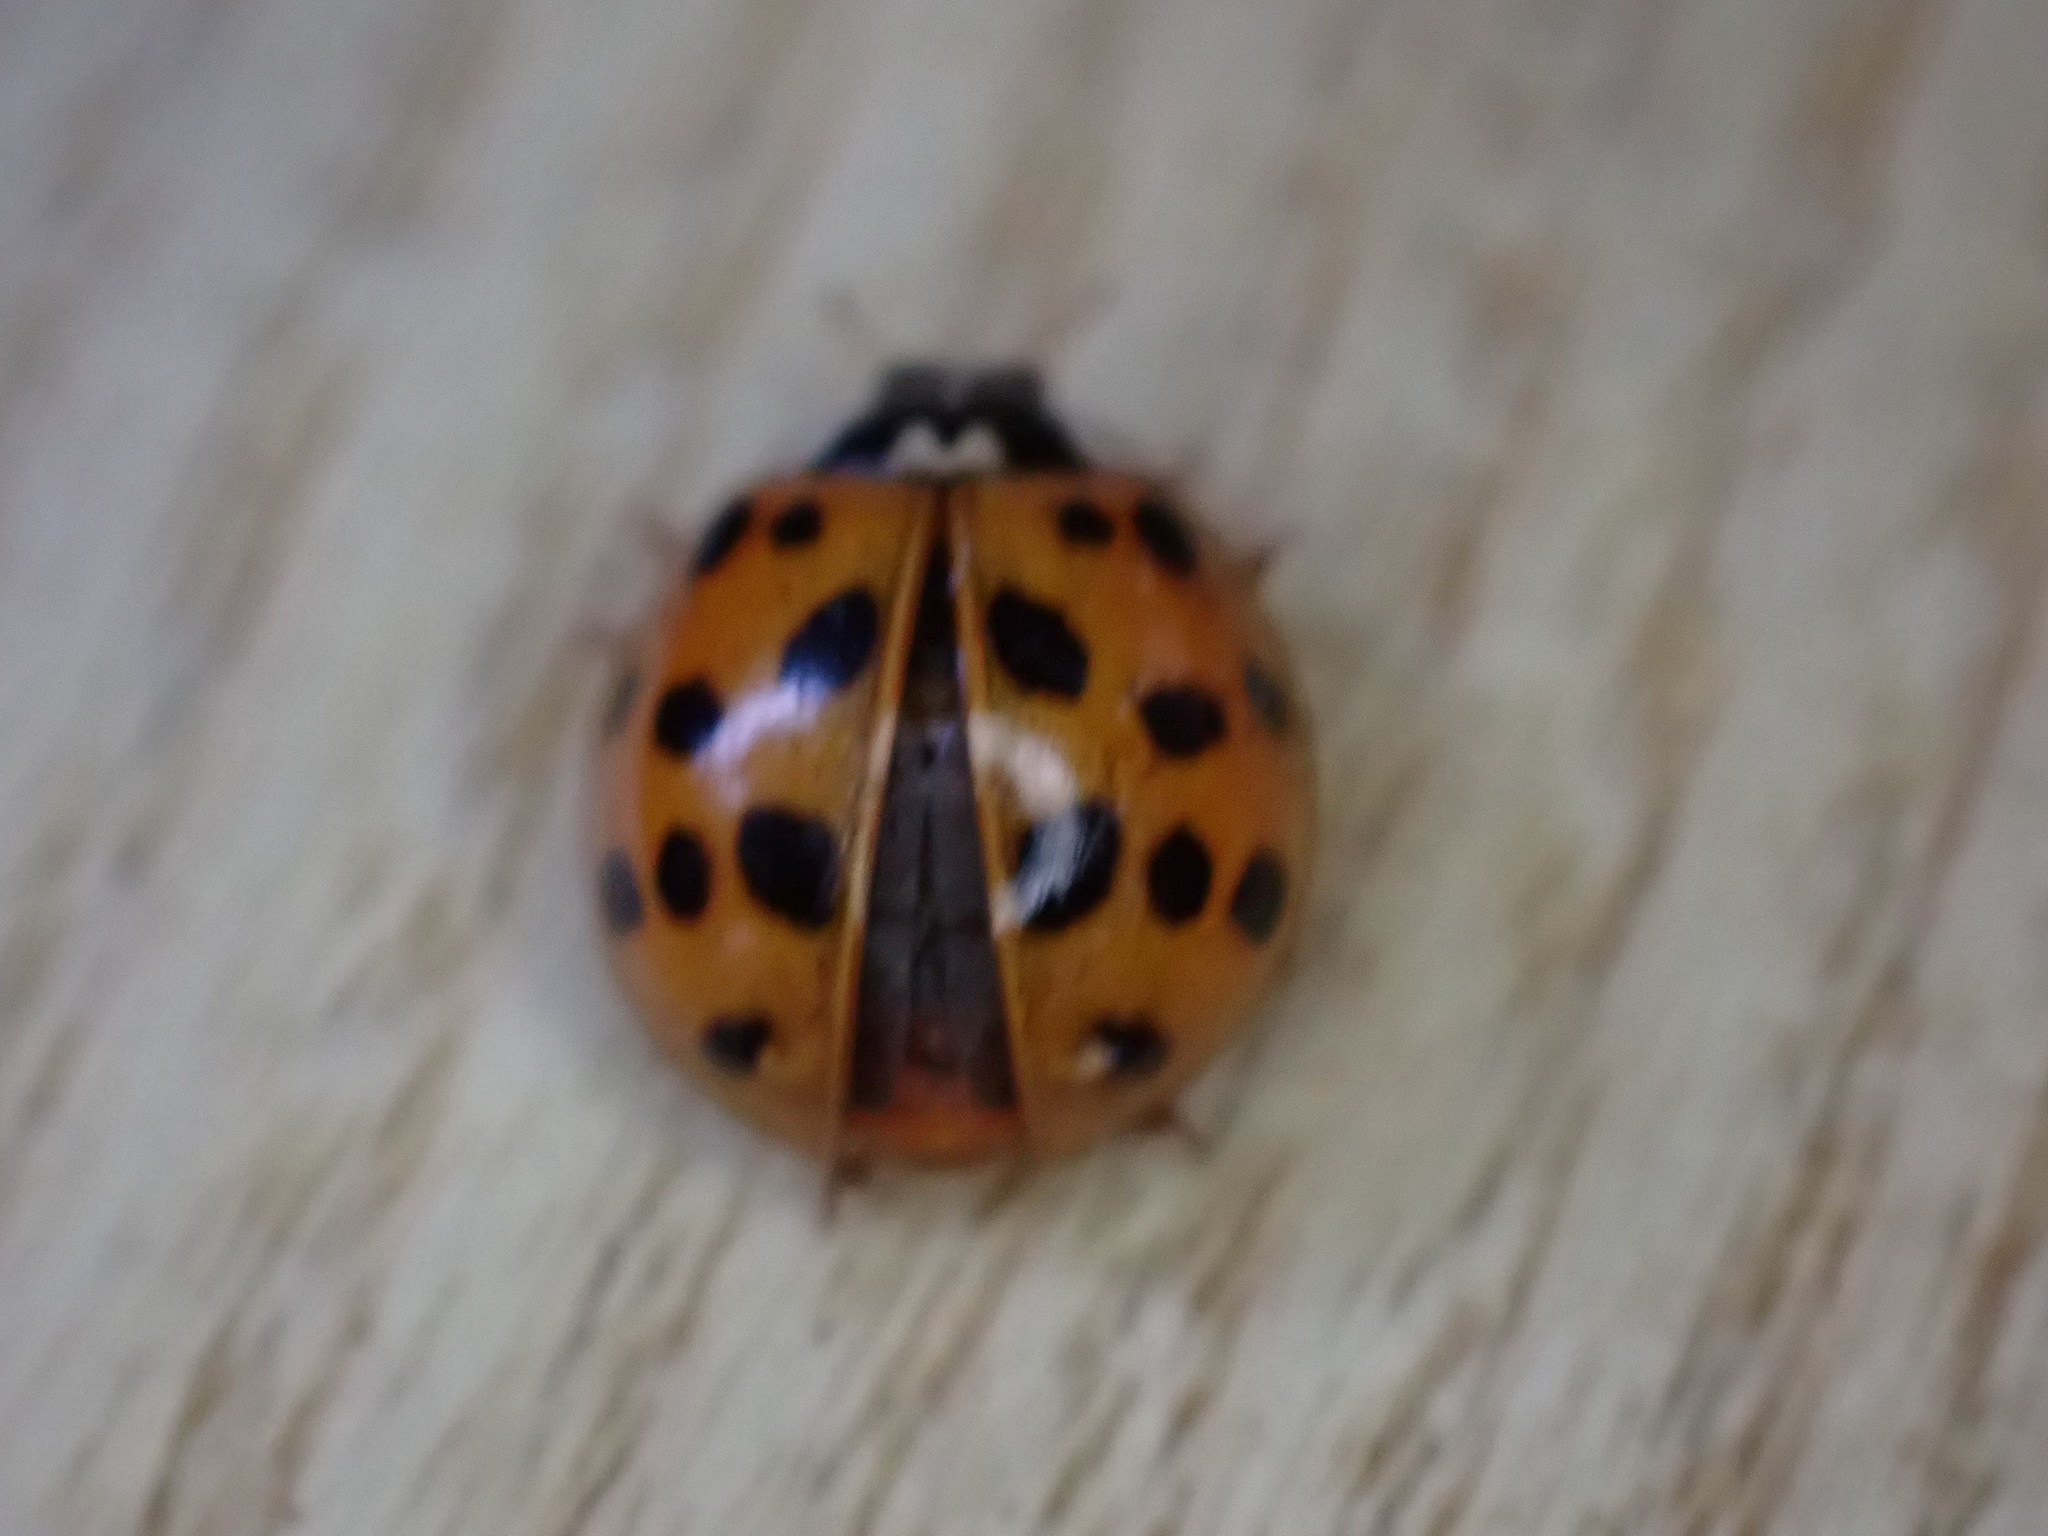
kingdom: Animalia
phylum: Arthropoda
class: Insecta
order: Coleoptera
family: Coccinellidae
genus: Harmonia
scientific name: Harmonia axyridis
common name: Harlequin ladybird
